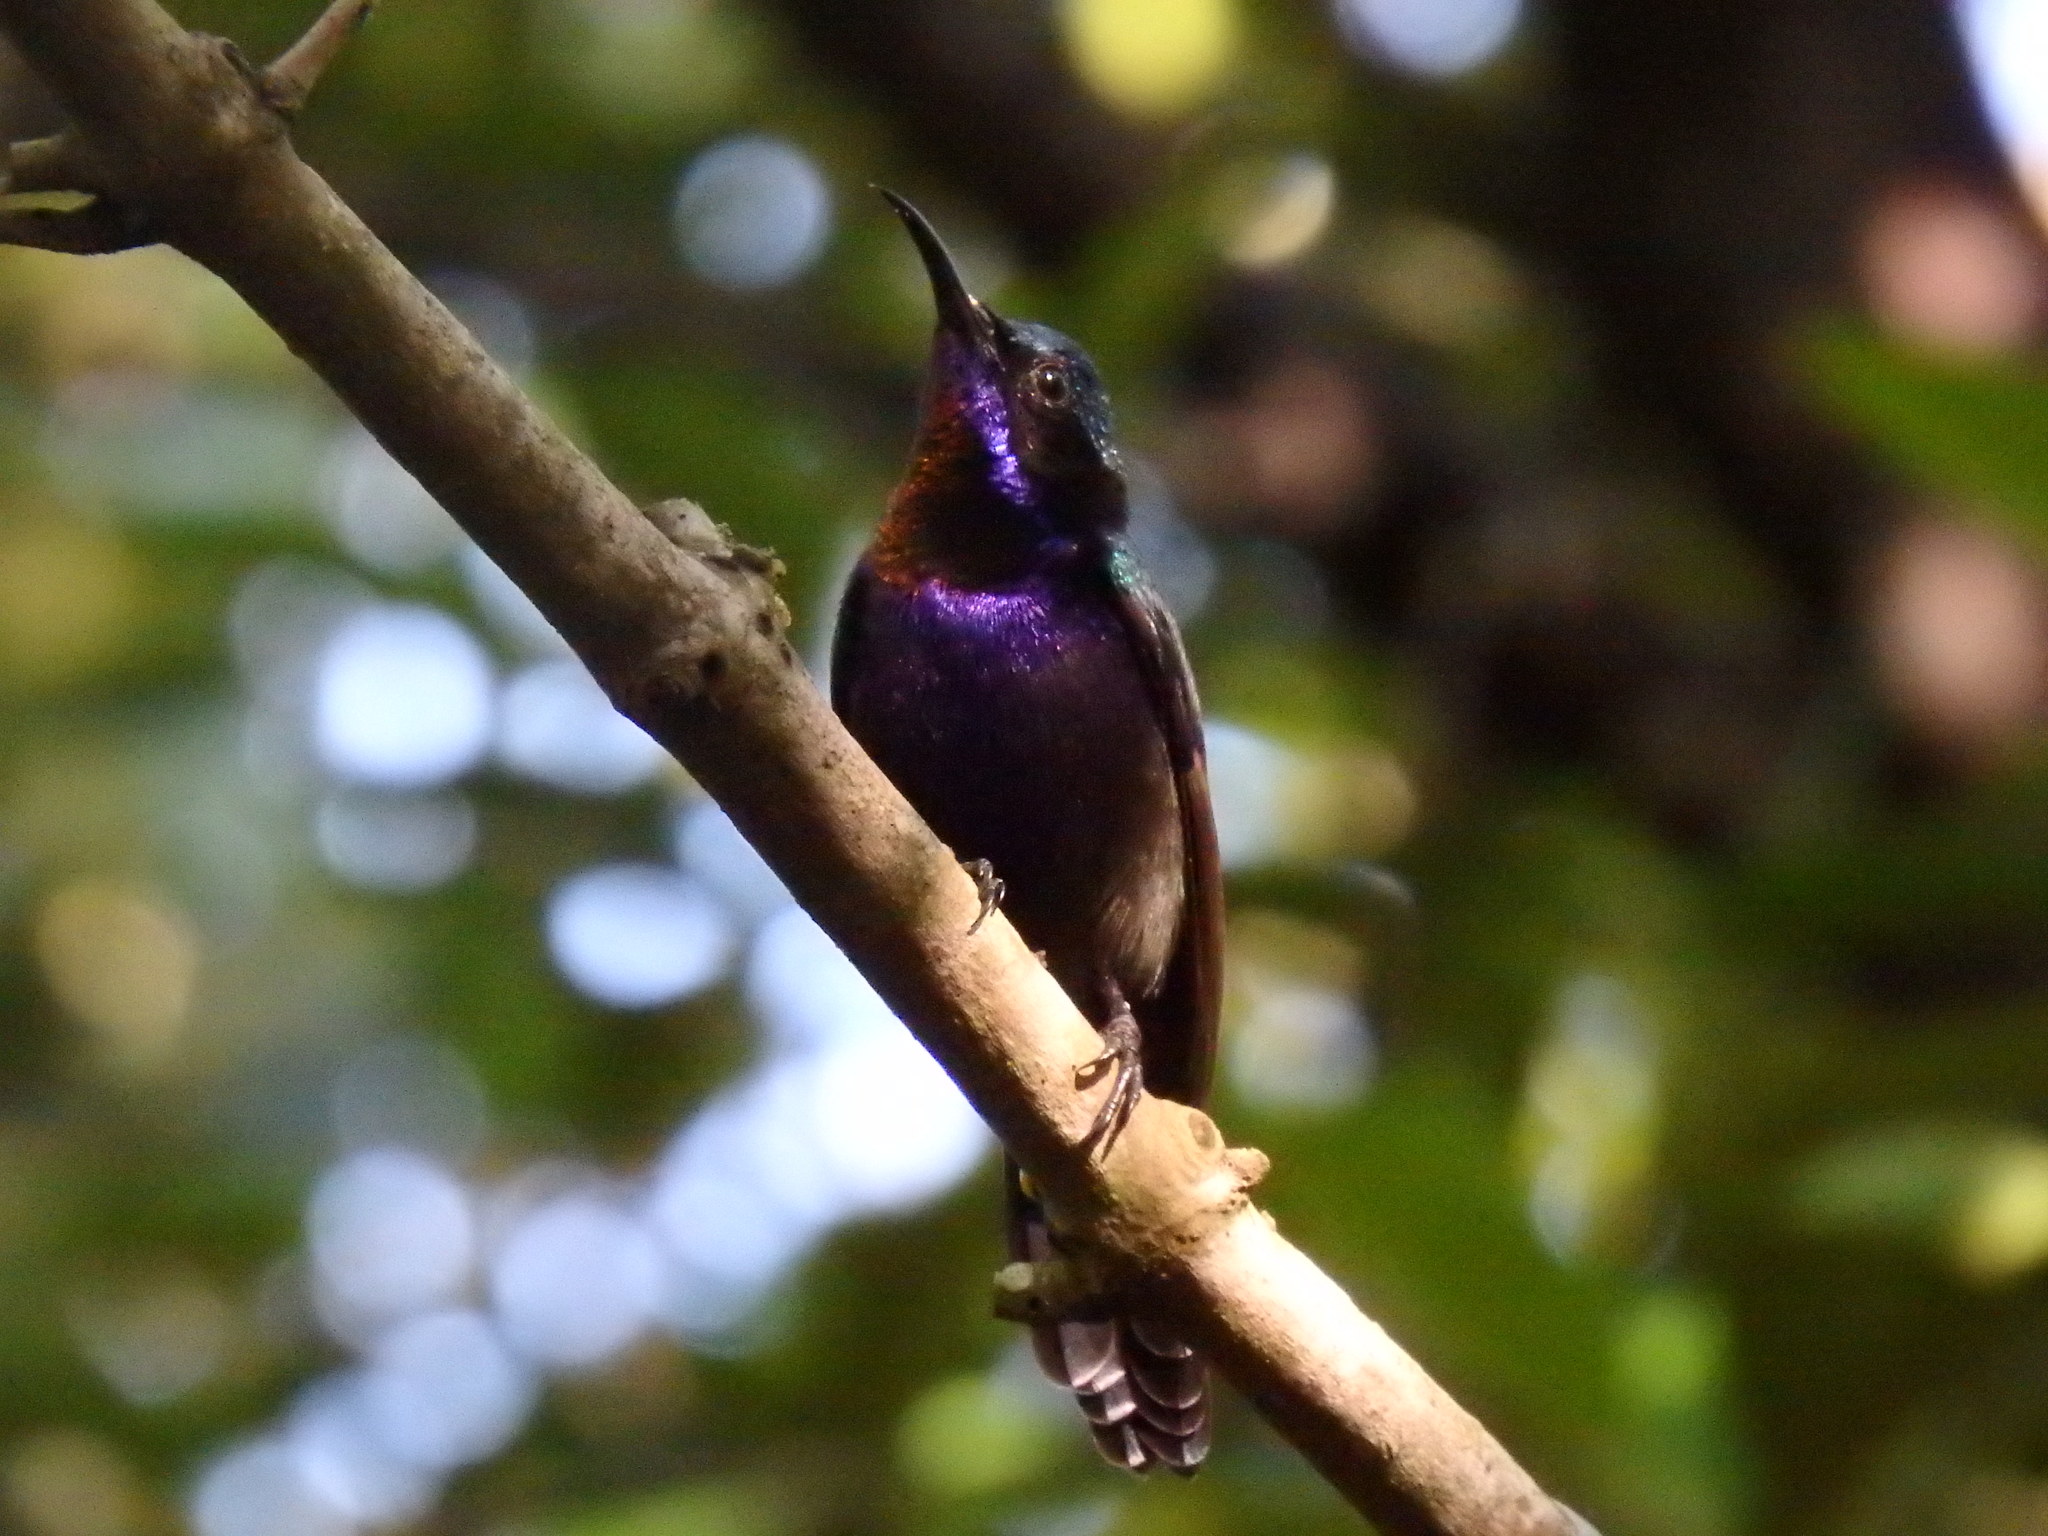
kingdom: Animalia
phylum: Chordata
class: Aves
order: Passeriformes
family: Nectariniidae
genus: Leptocoma
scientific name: Leptocoma calcostetha
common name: Copper-throated sunbird
